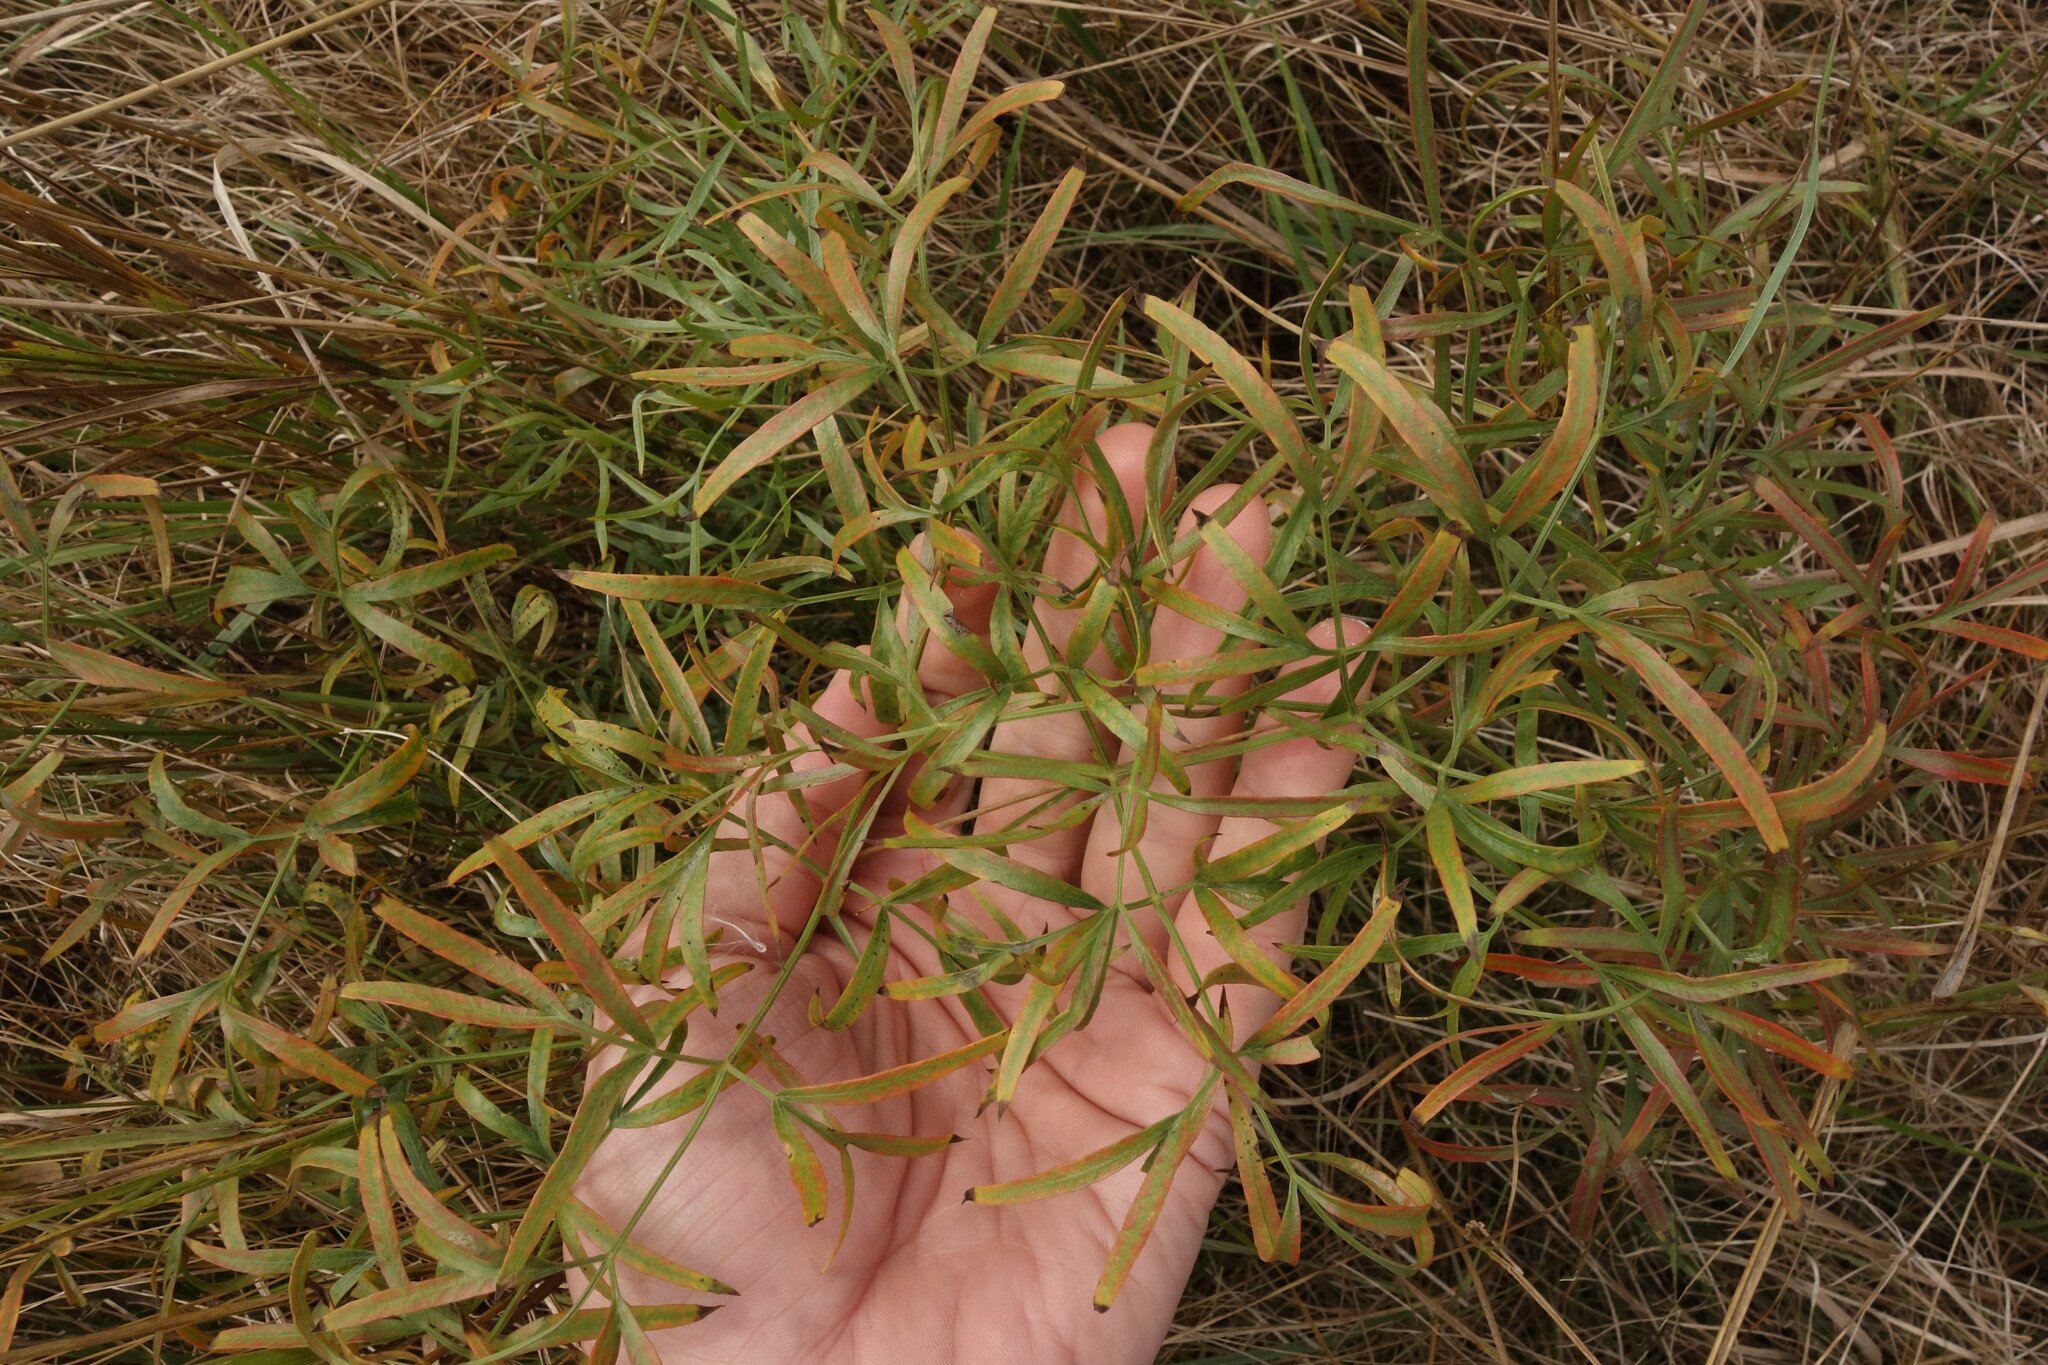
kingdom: Plantae
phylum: Tracheophyta
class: Magnoliopsida
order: Apiales
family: Apiaceae
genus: Silaum
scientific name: Silaum silaus
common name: Pepper-saxifrage
